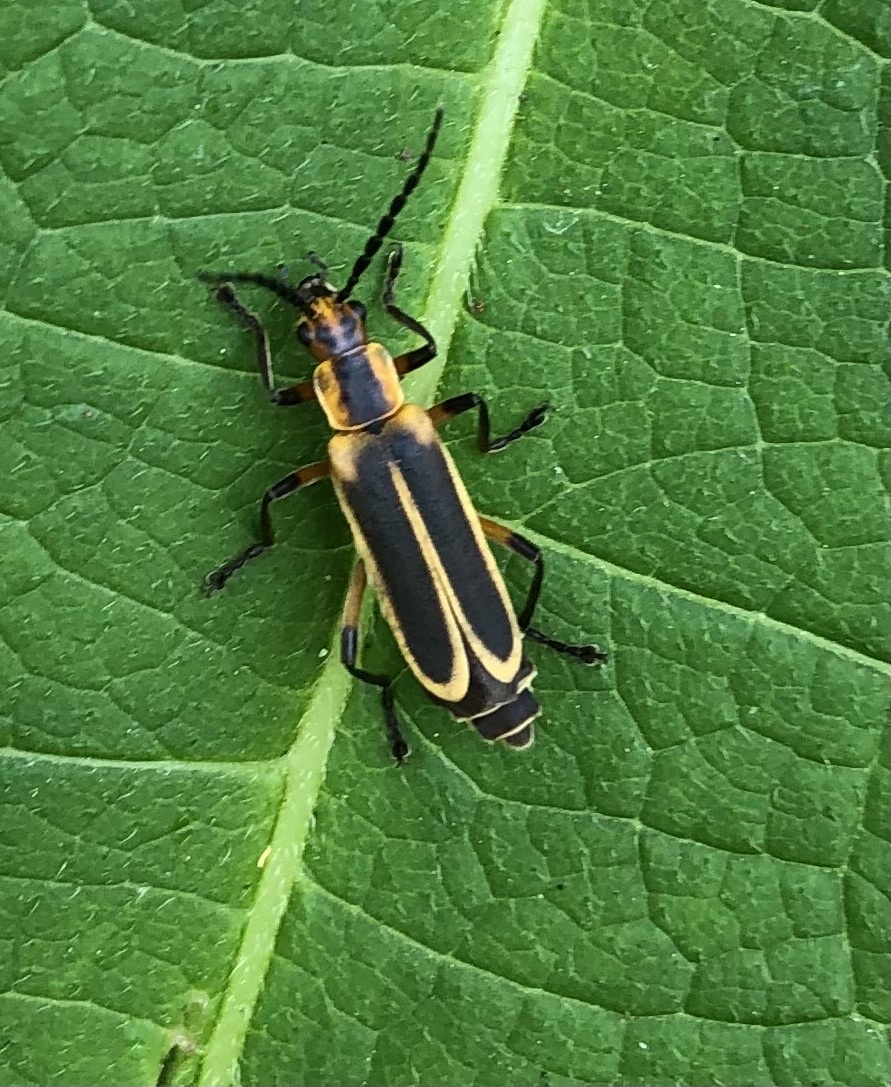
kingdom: Animalia
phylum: Arthropoda
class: Insecta
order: Coleoptera
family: Cantharidae
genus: Chauliognathus
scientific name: Chauliognathus marginatus
